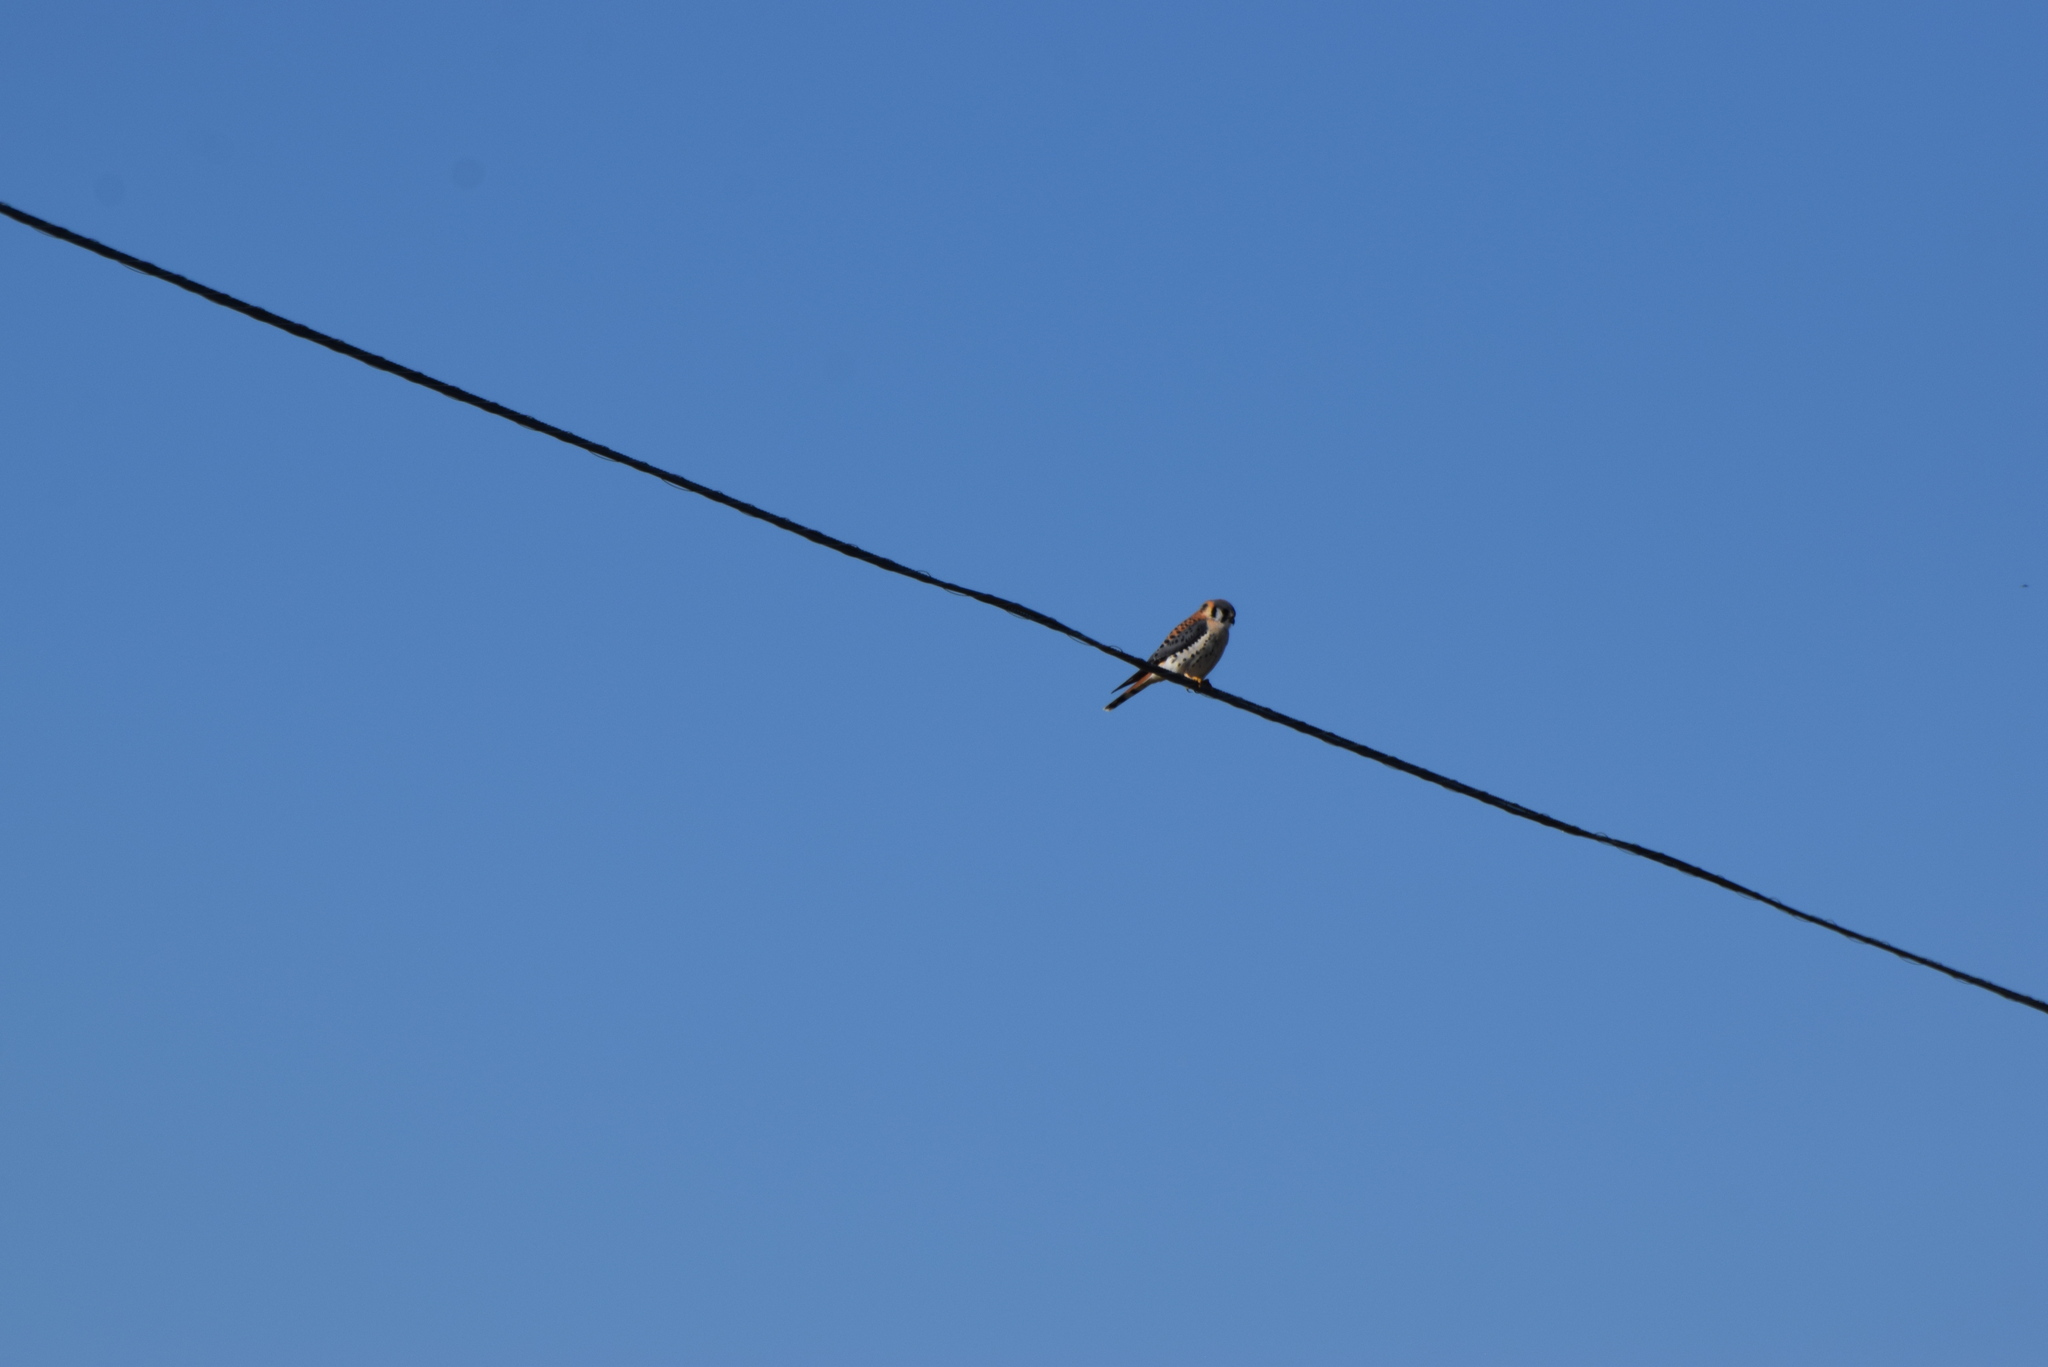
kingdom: Animalia
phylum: Chordata
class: Aves
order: Falconiformes
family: Falconidae
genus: Falco
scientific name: Falco sparverius
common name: American kestrel
